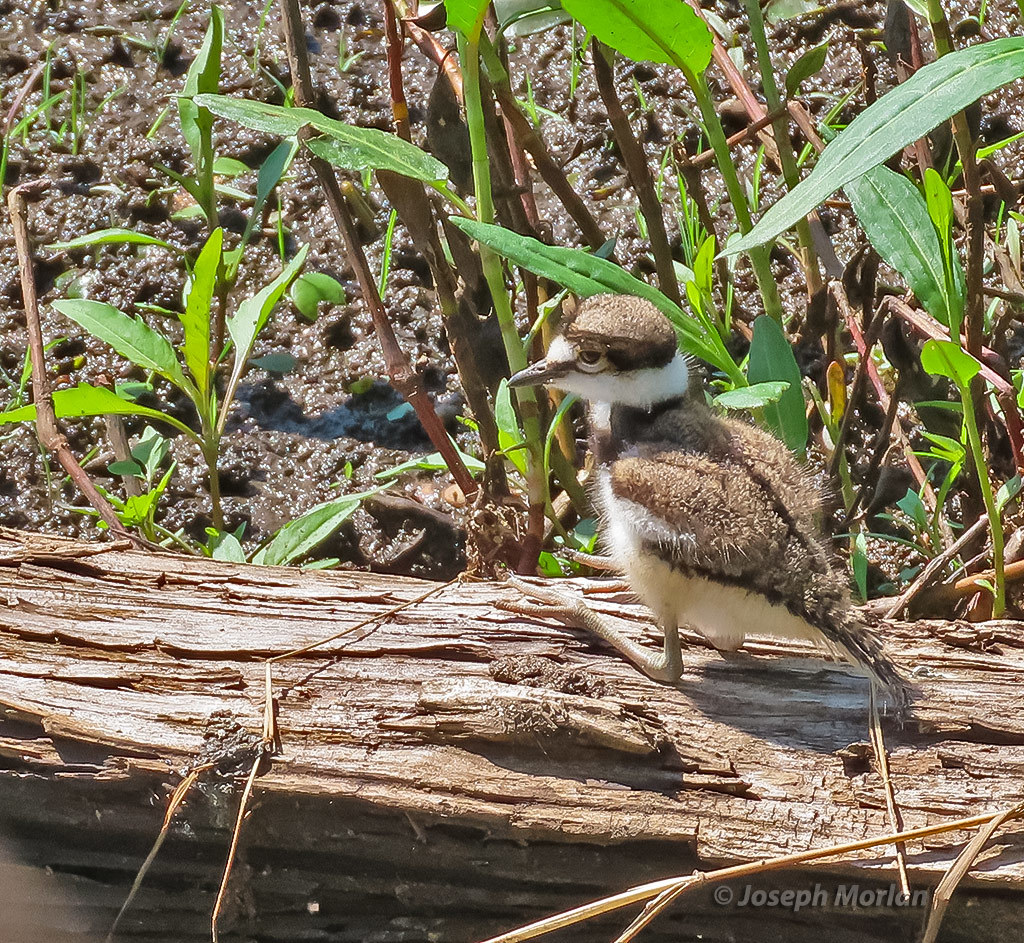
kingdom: Animalia
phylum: Chordata
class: Aves
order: Charadriiformes
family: Charadriidae
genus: Charadrius
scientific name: Charadrius vociferus
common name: Killdeer
